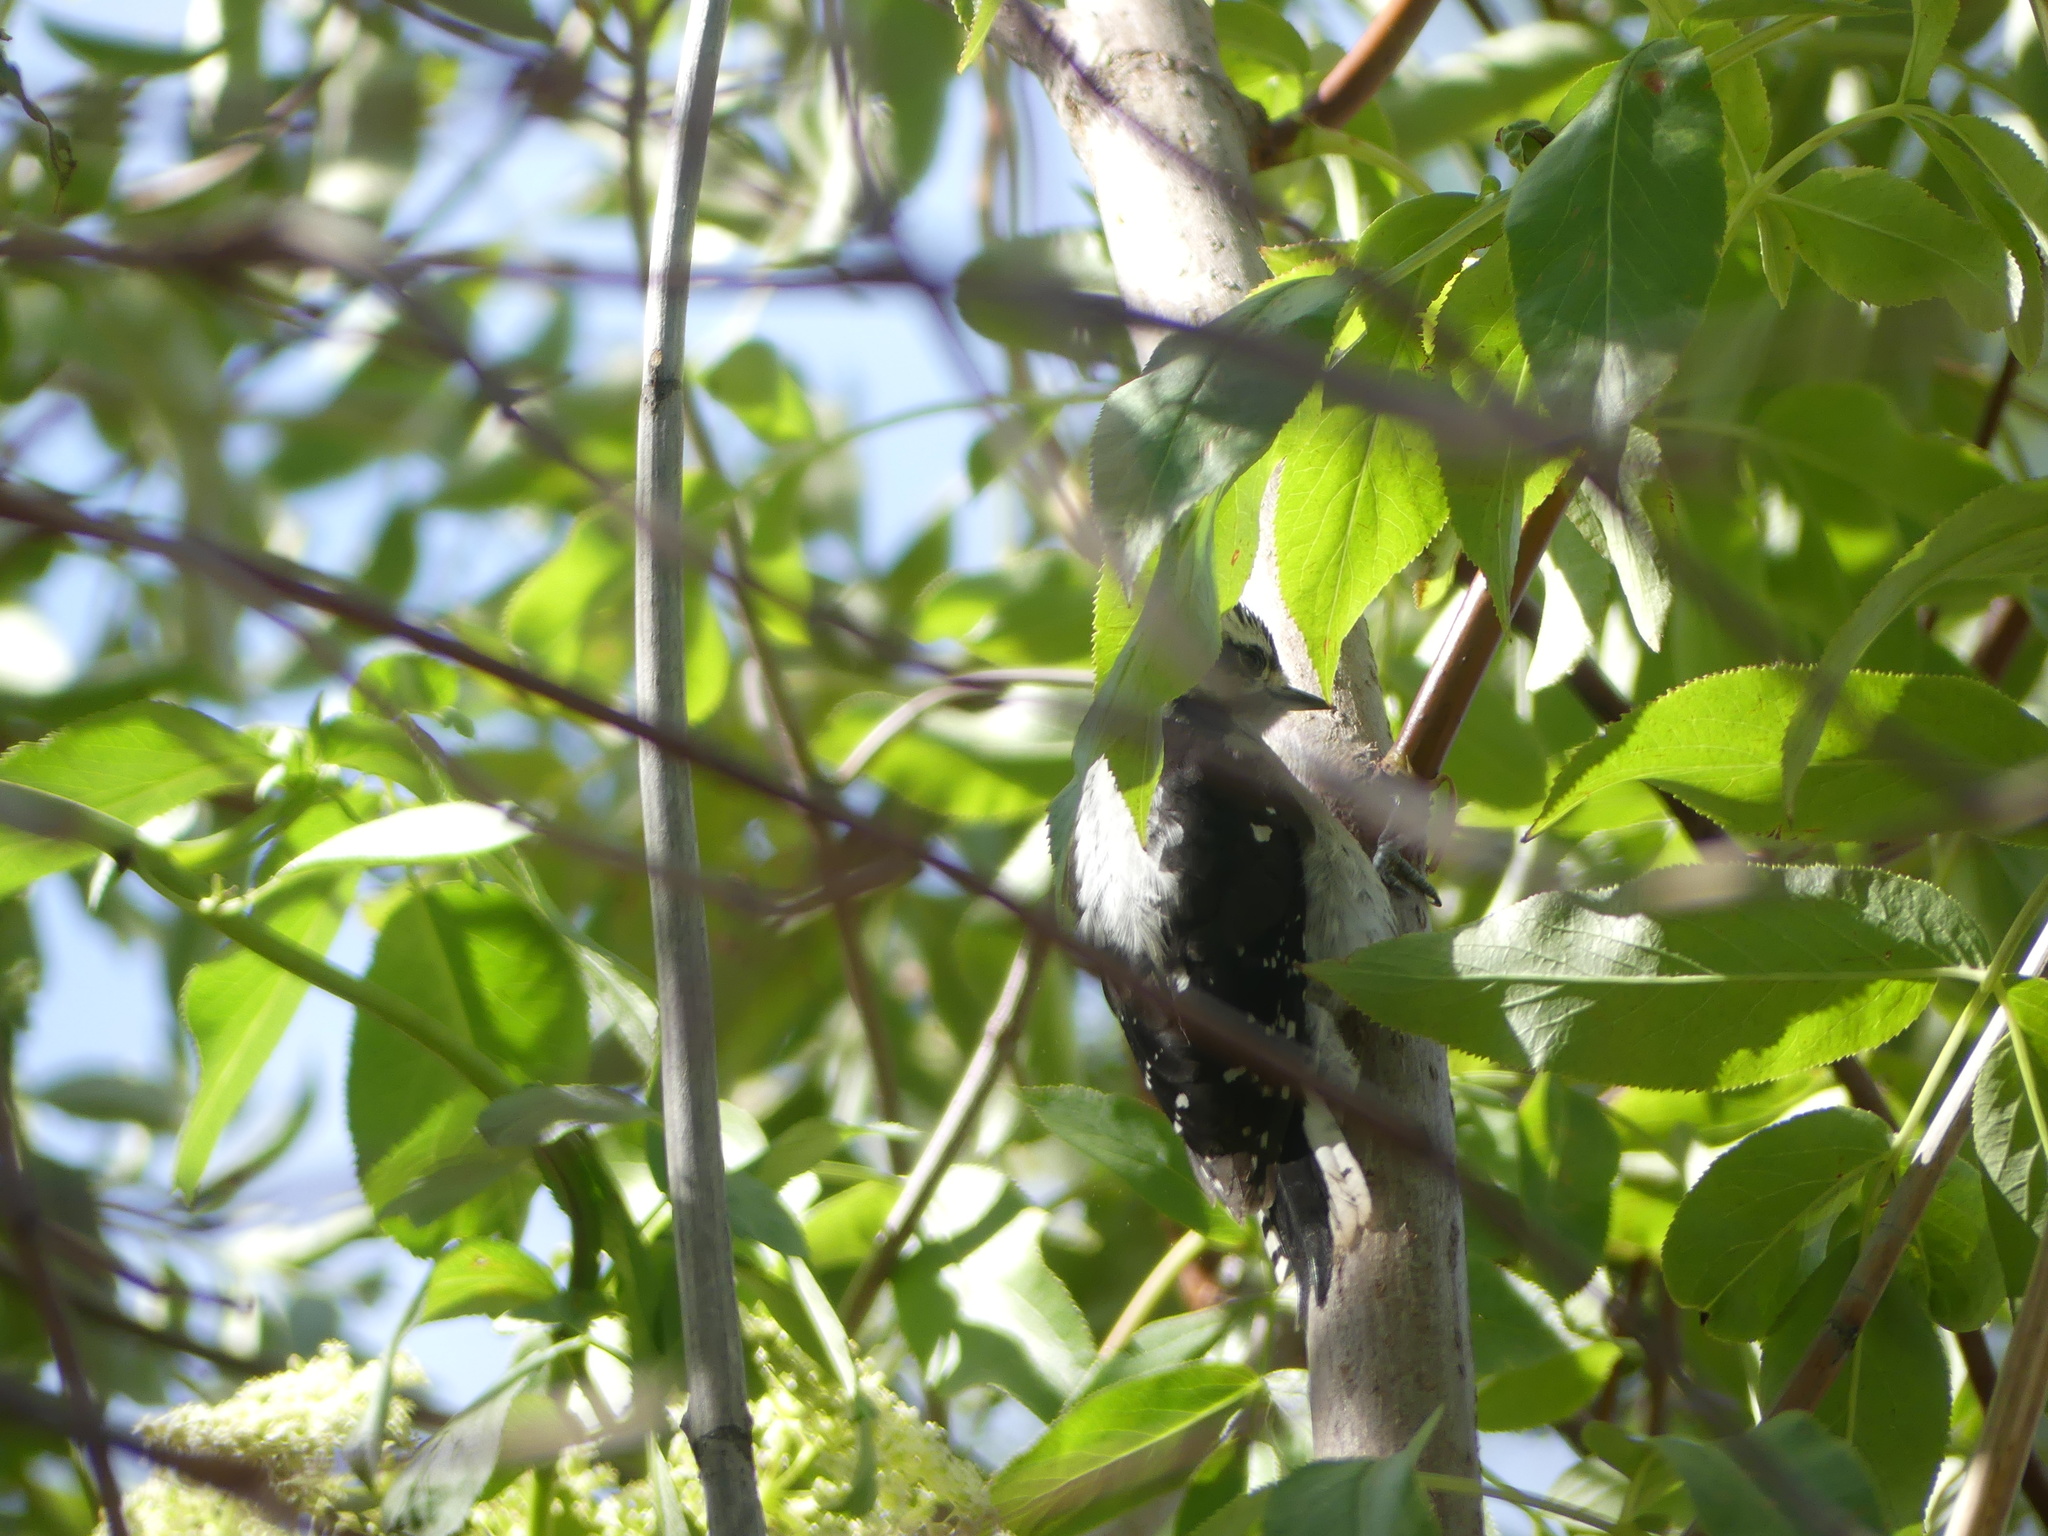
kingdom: Animalia
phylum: Chordata
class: Aves
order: Piciformes
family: Picidae
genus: Dryobates
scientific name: Dryobates pubescens
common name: Downy woodpecker
